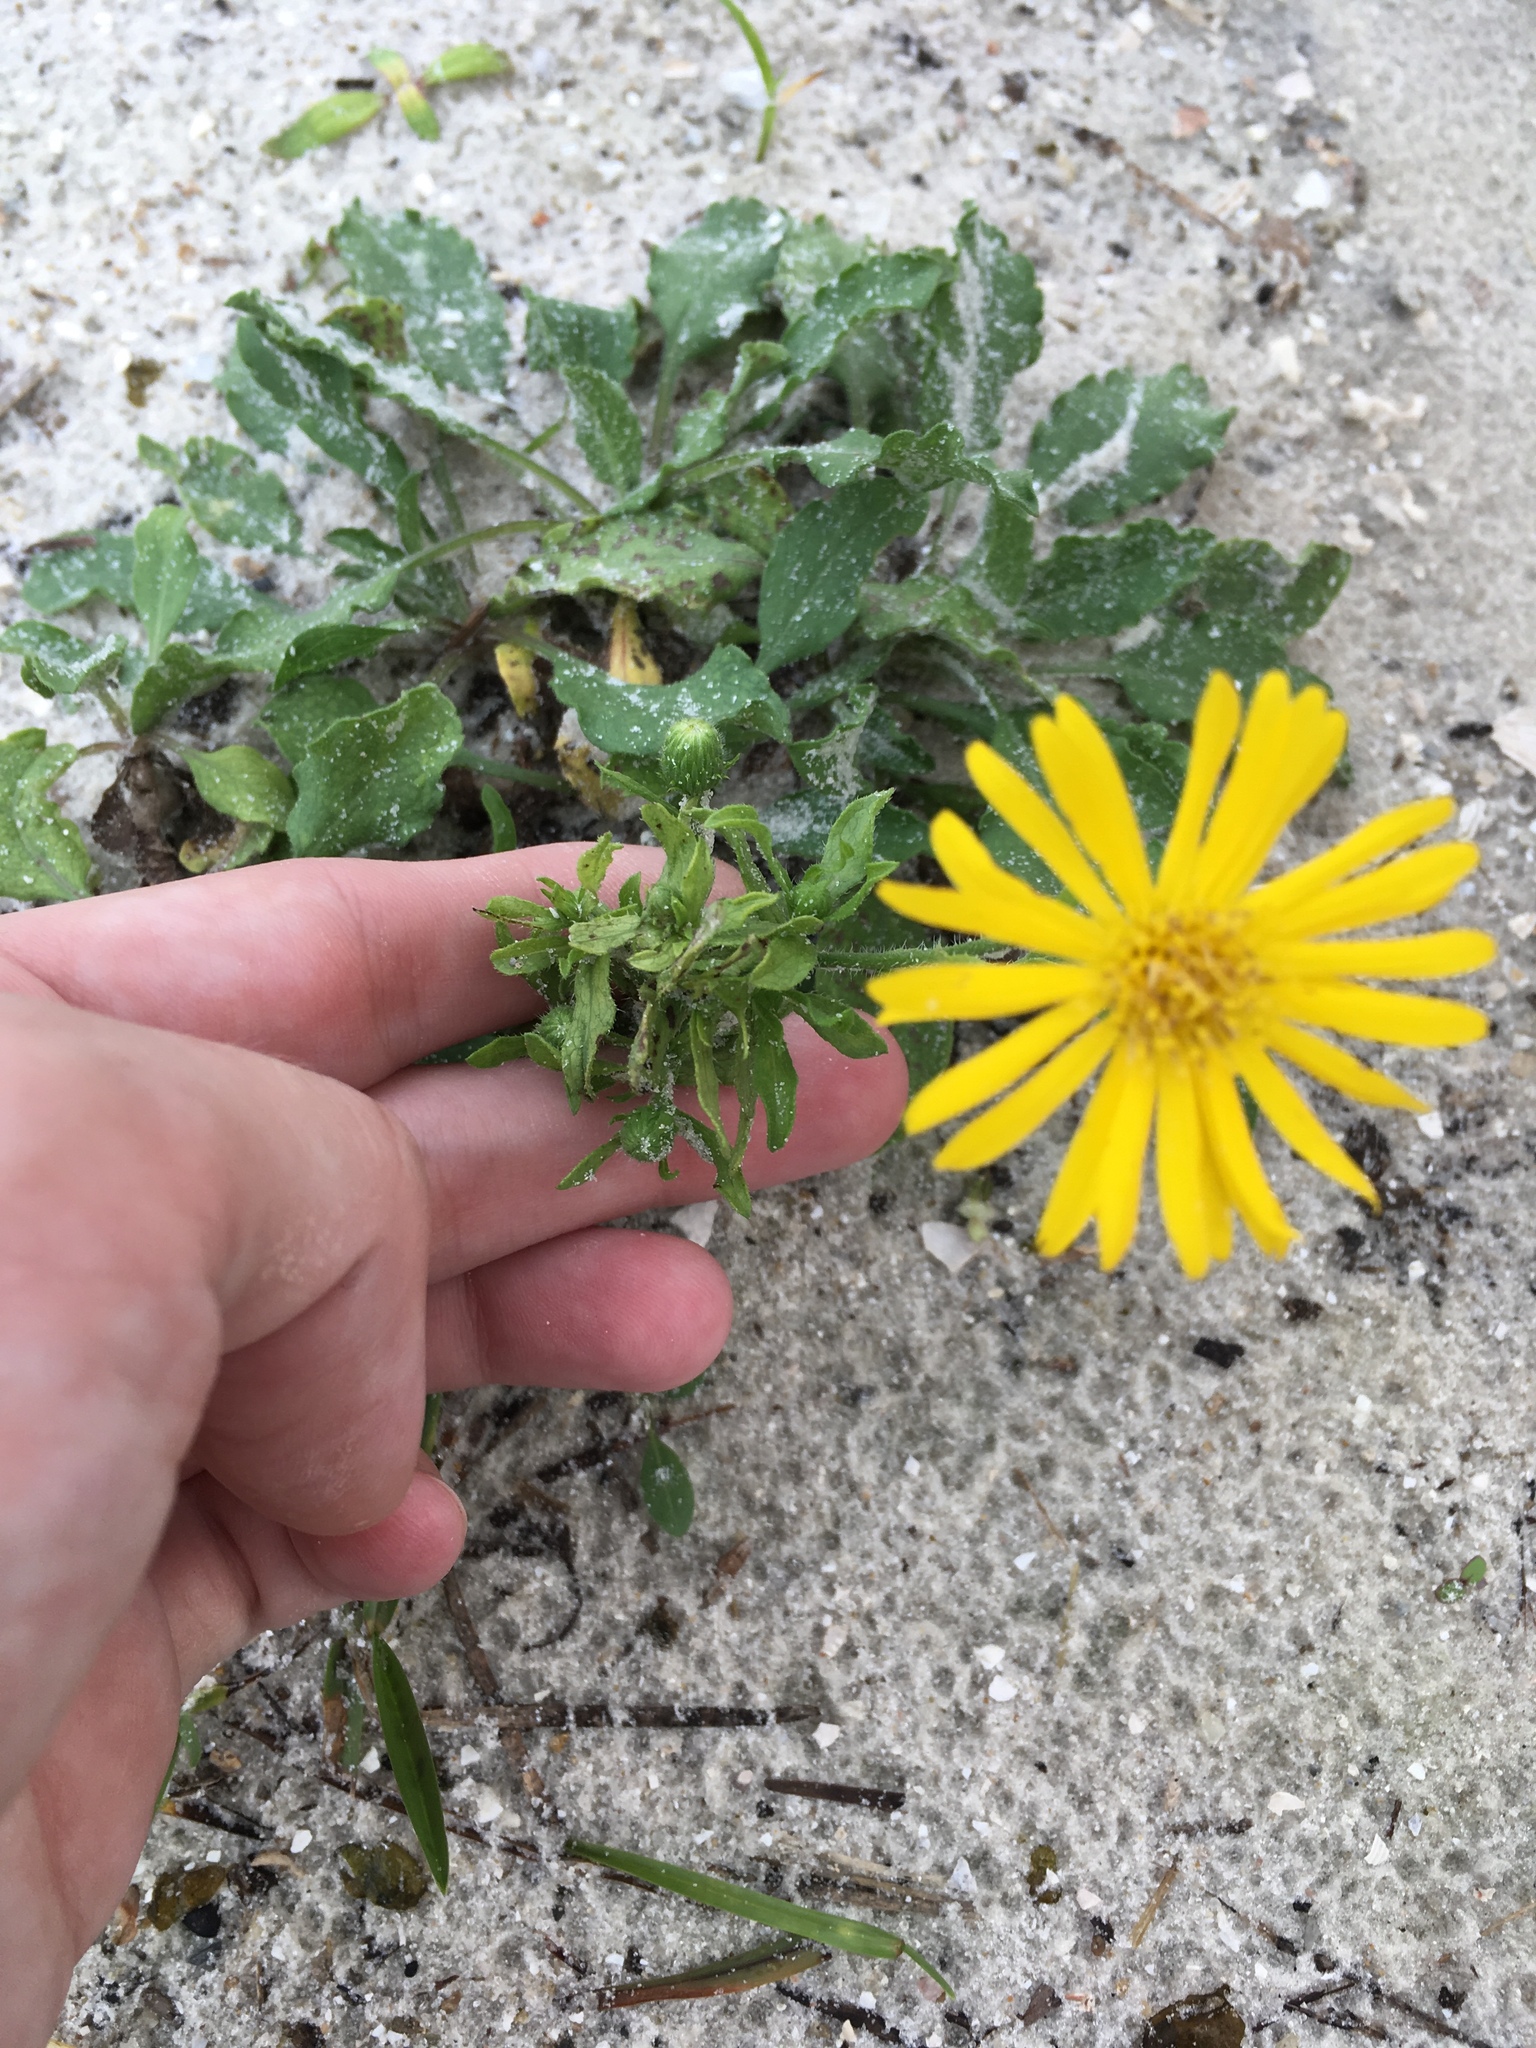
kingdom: Plantae
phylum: Tracheophyta
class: Magnoliopsida
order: Asterales
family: Asteraceae
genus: Heterotheca
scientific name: Heterotheca subaxillaris
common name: Camphorweed
